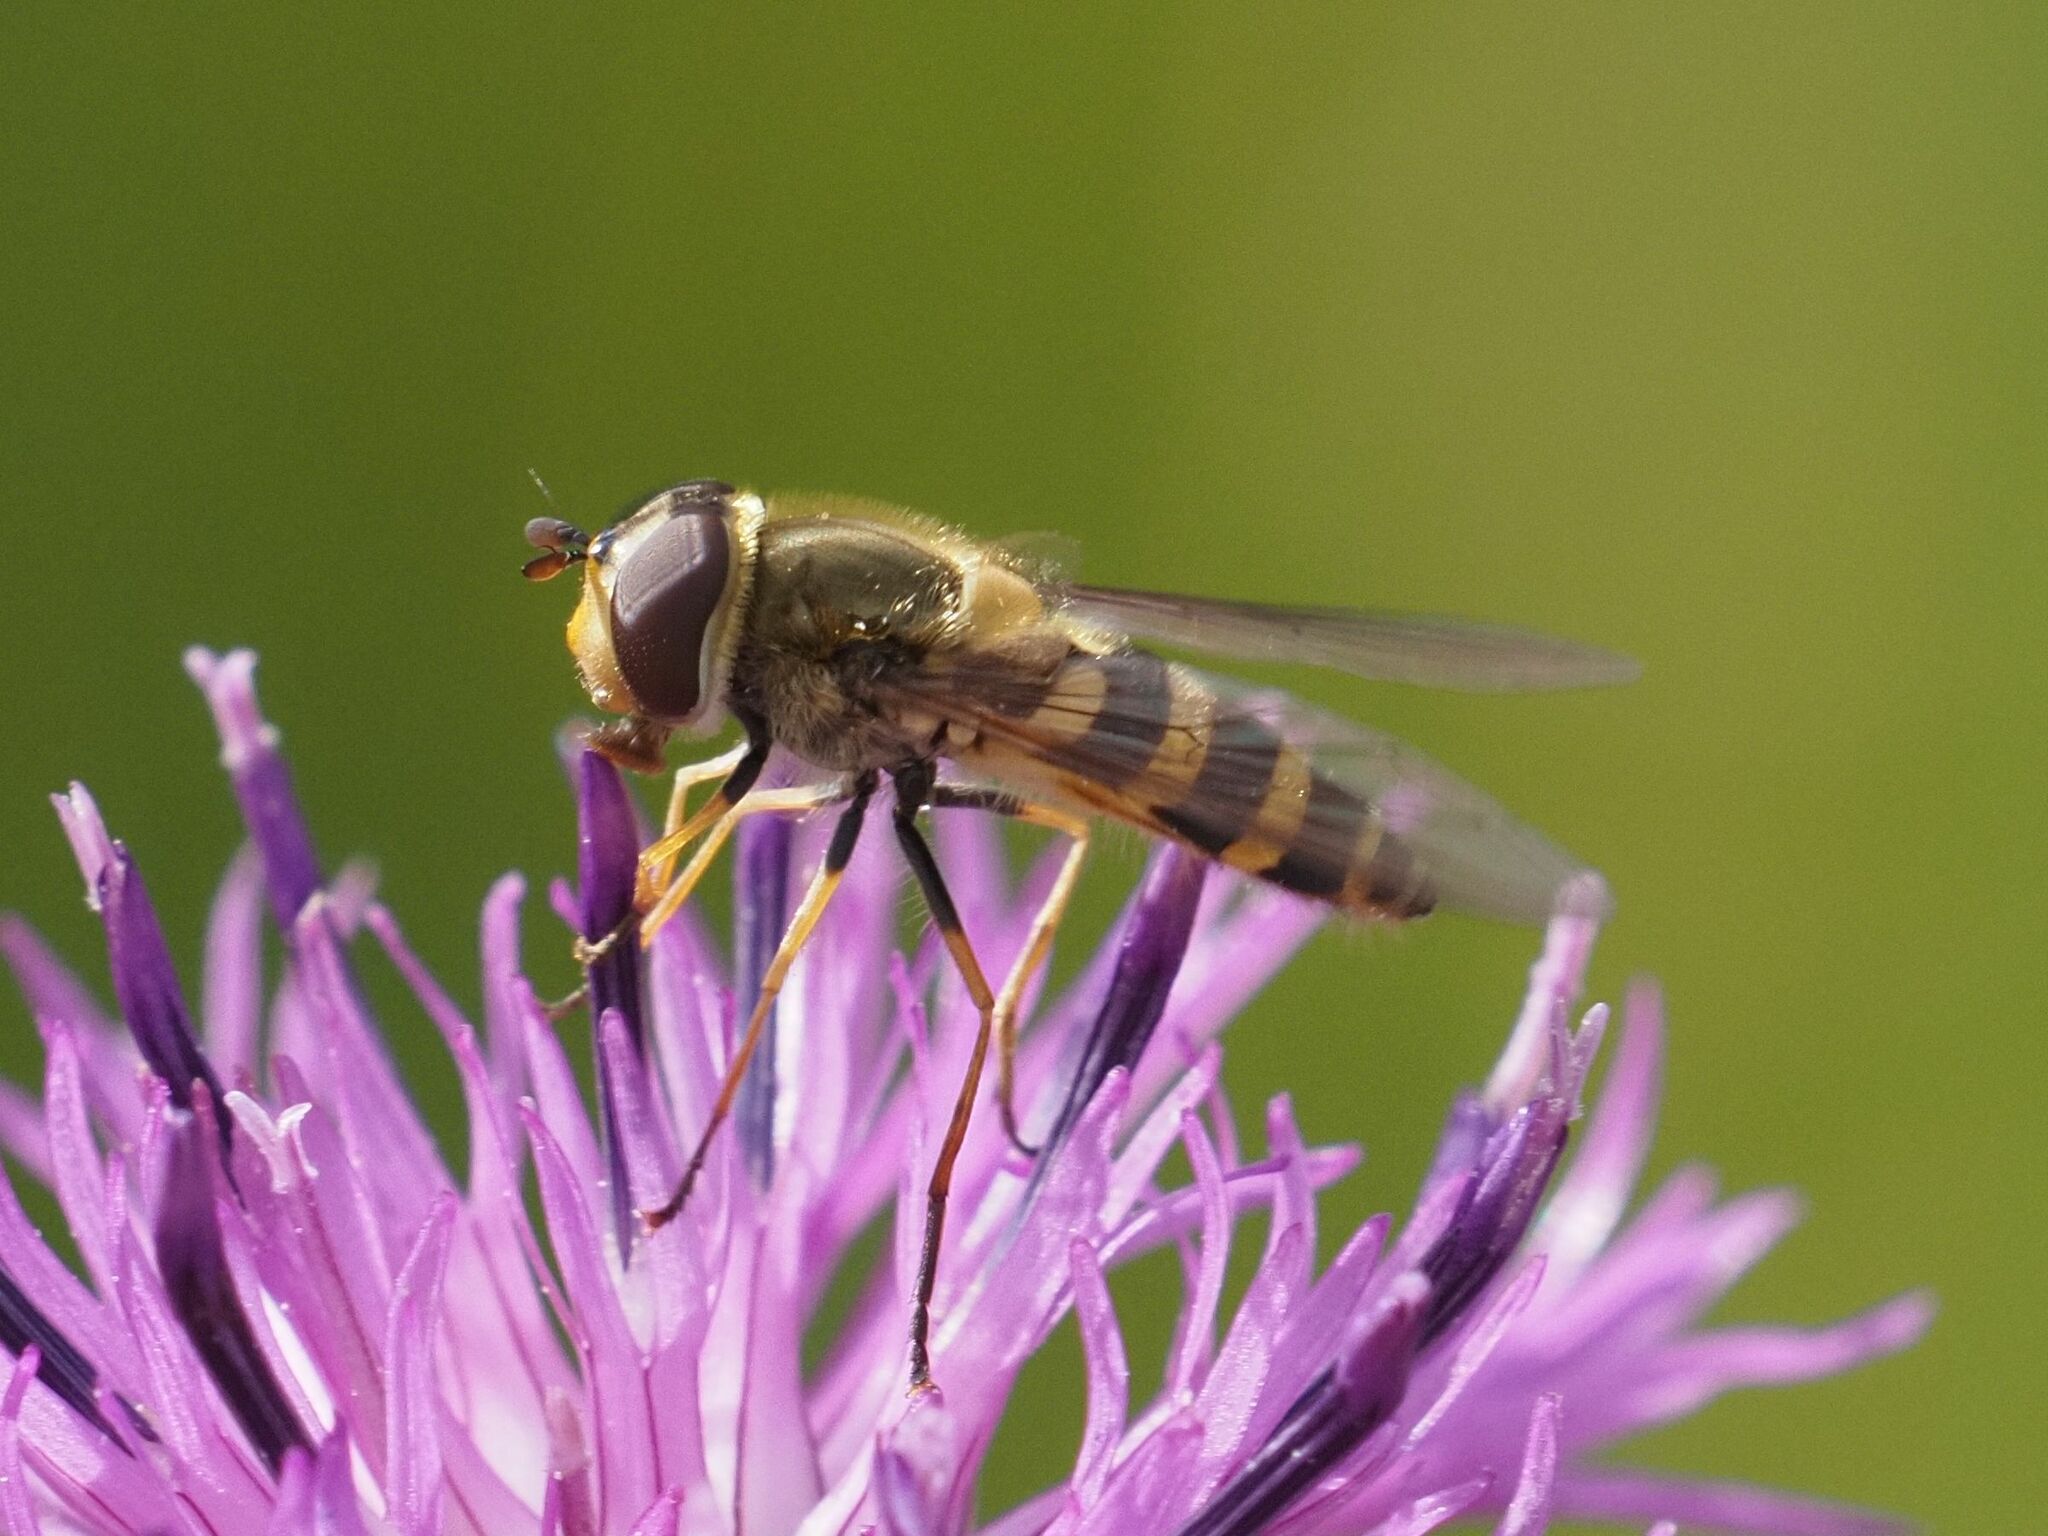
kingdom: Animalia
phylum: Arthropoda
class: Insecta
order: Diptera
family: Syrphidae
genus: Syrphus
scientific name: Syrphus torvus
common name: Hairy-eyed flower fly
